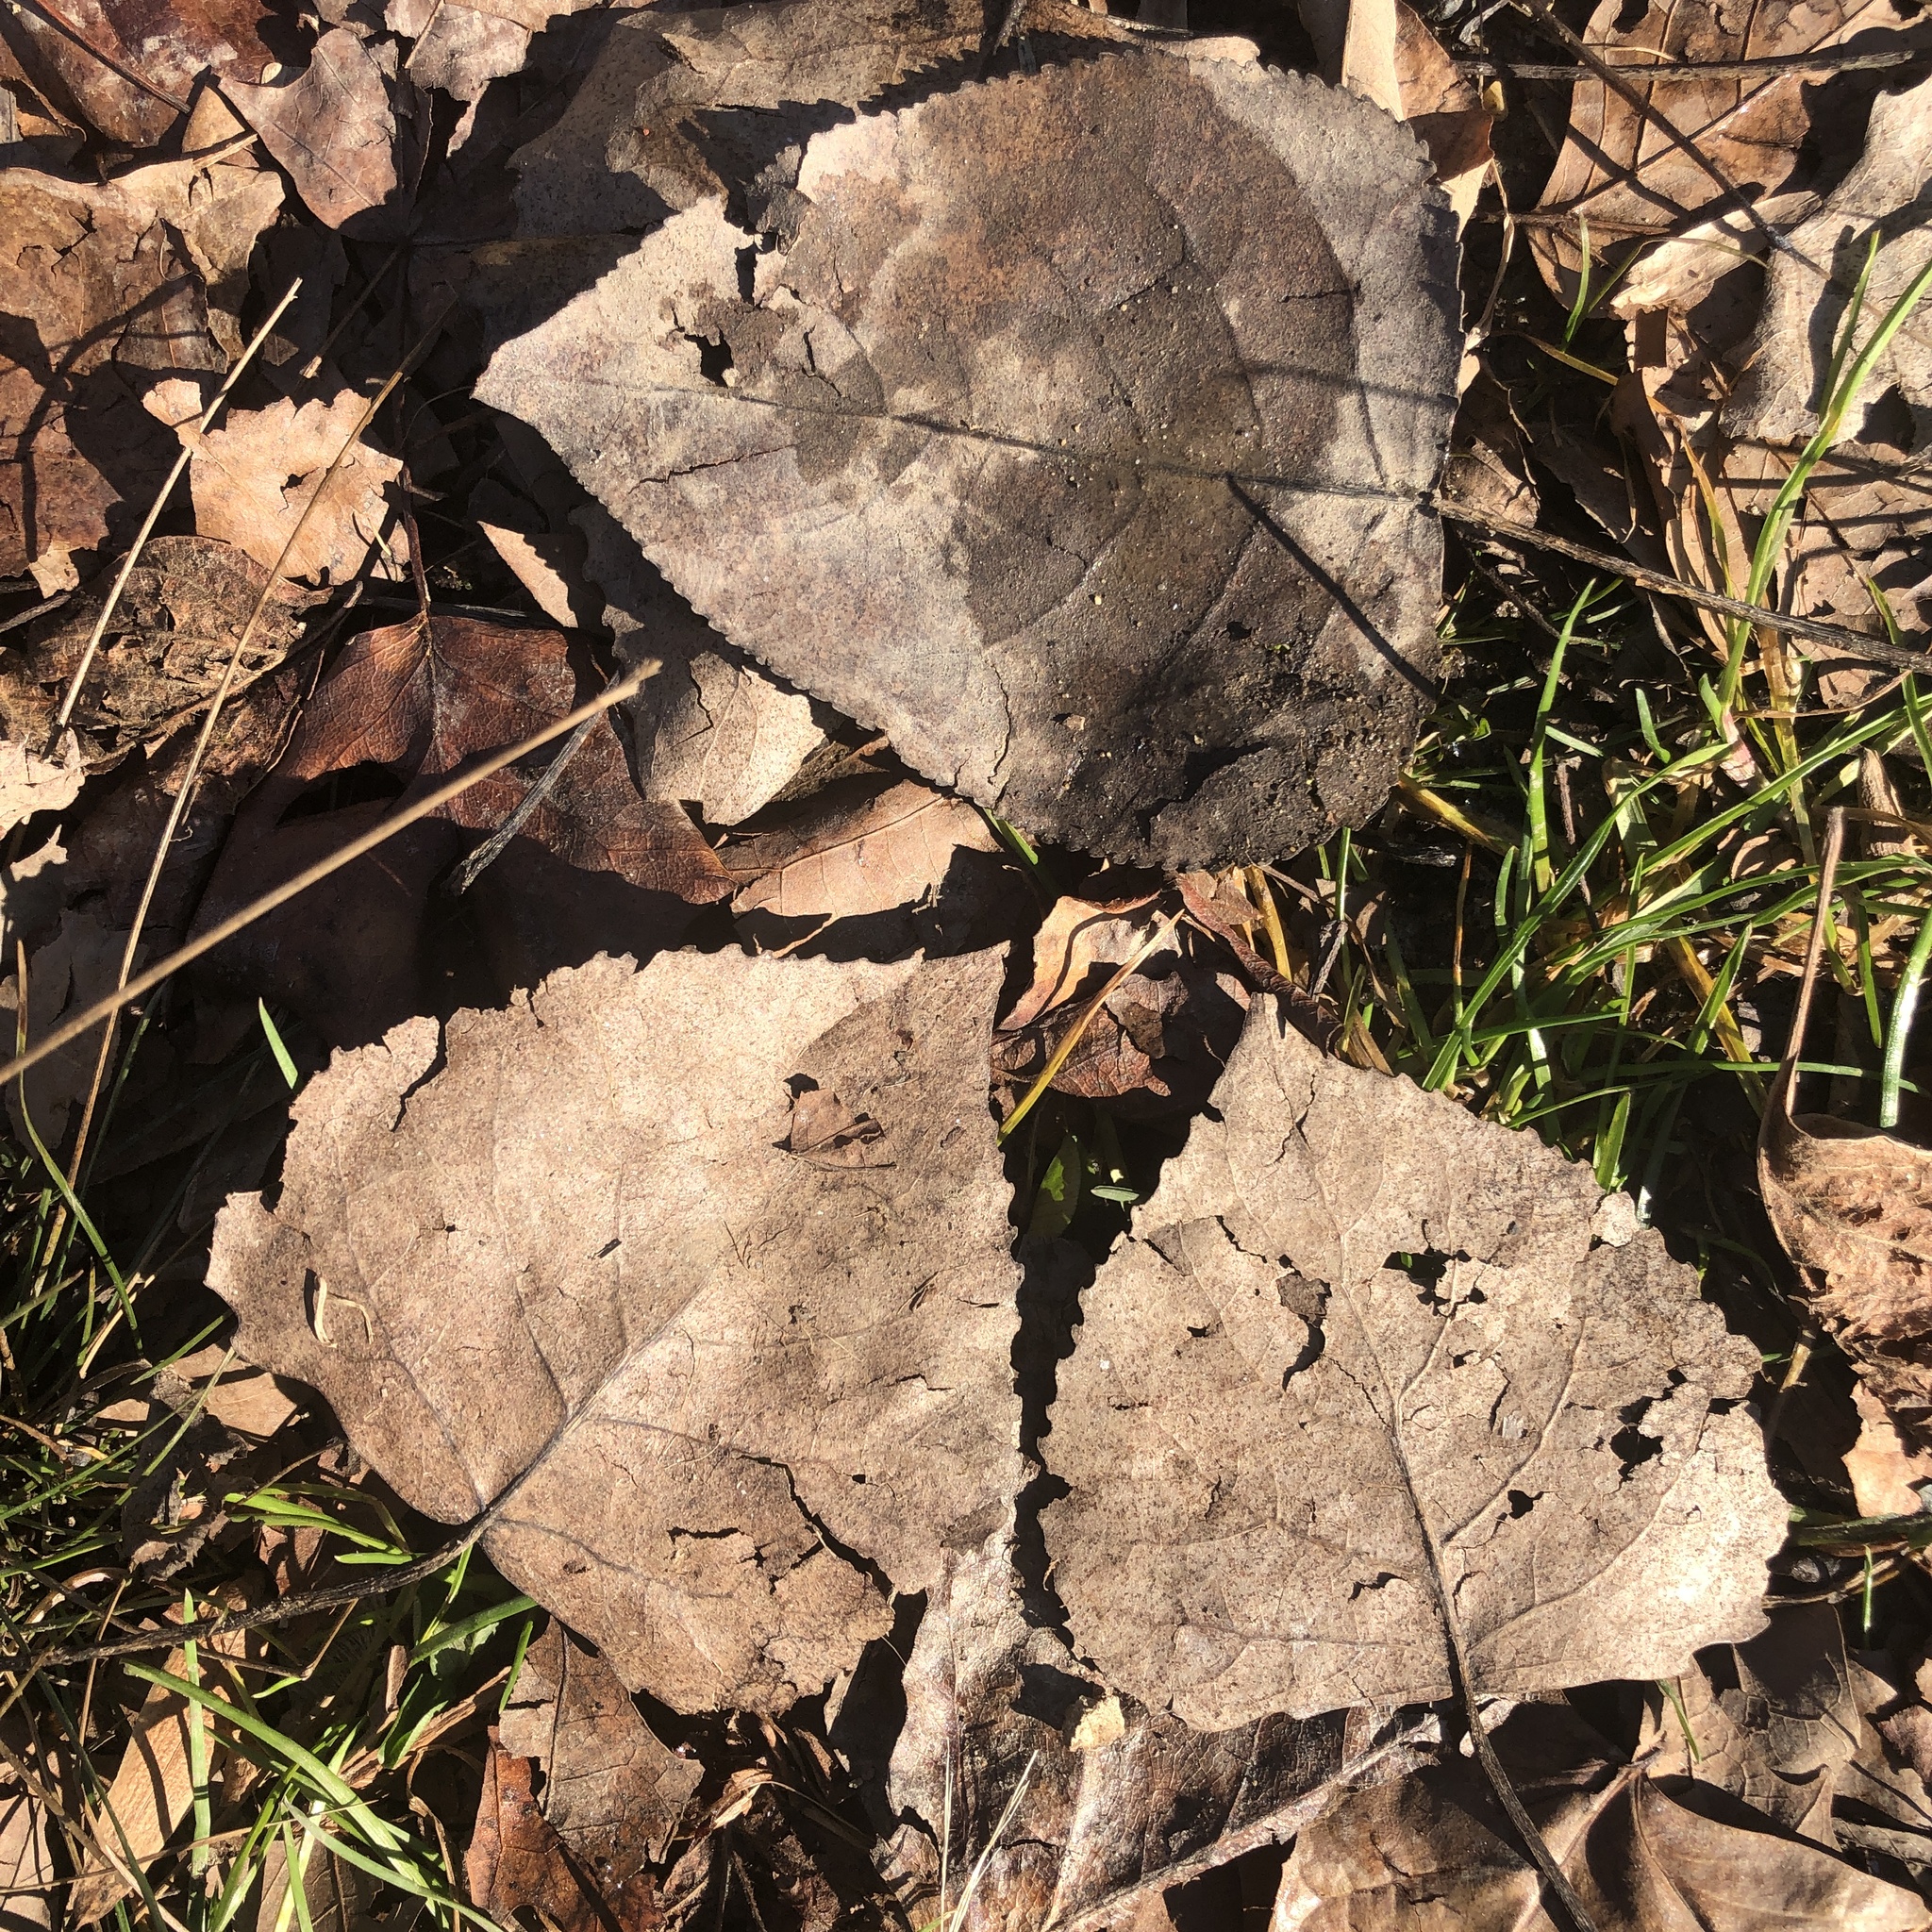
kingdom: Plantae
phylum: Tracheophyta
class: Magnoliopsida
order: Malpighiales
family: Salicaceae
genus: Populus
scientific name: Populus deltoides
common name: Eastern cottonwood
